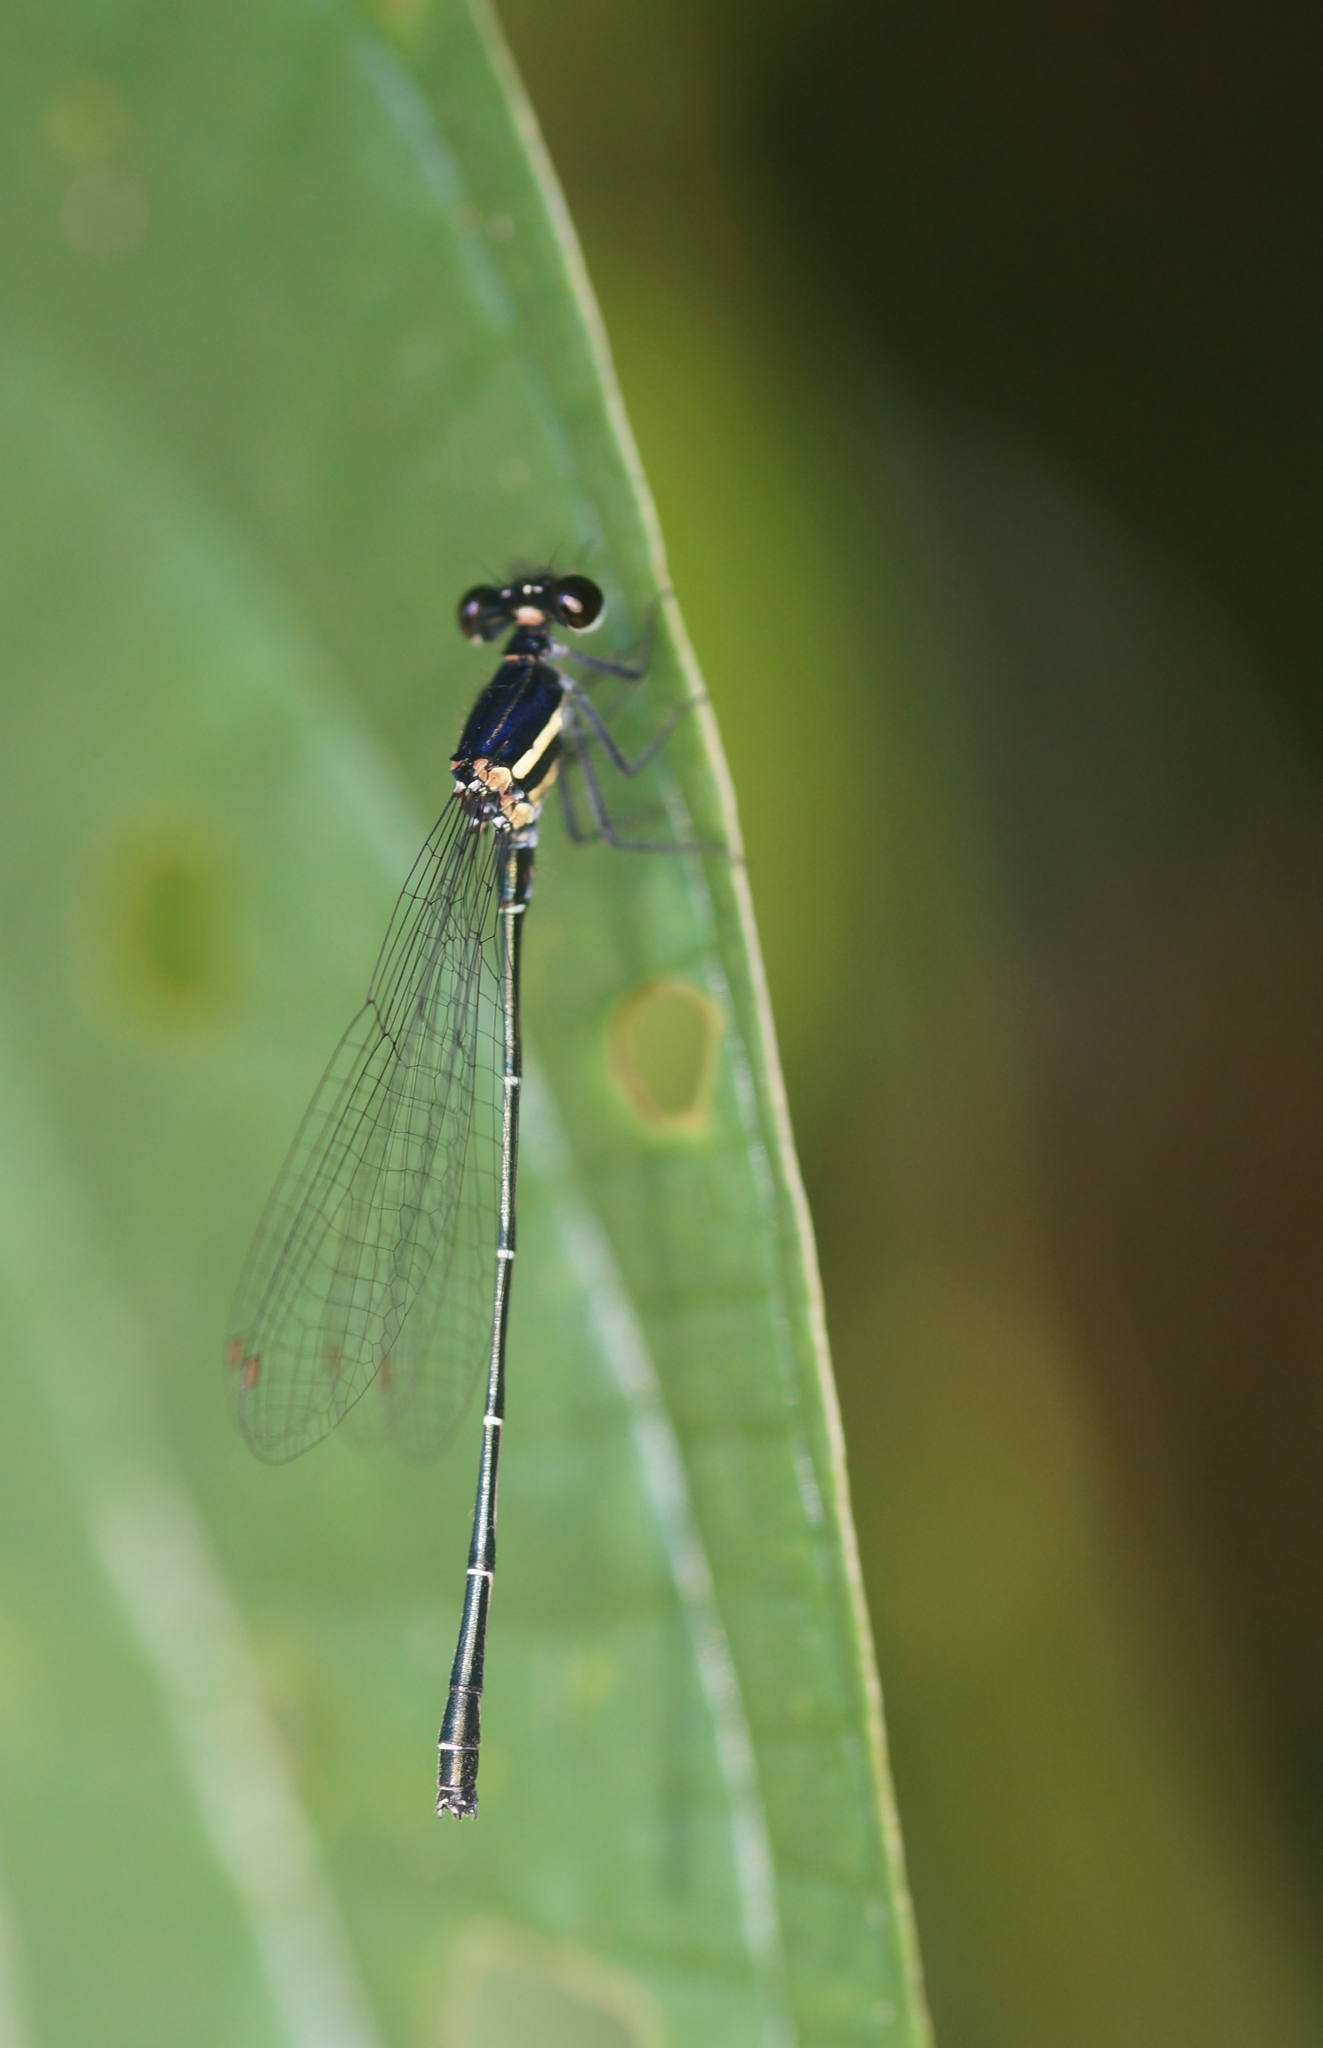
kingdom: Animalia
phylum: Arthropoda
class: Insecta
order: Odonata
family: Platycnemididae
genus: Onychargia
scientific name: Onychargia atrocyana
